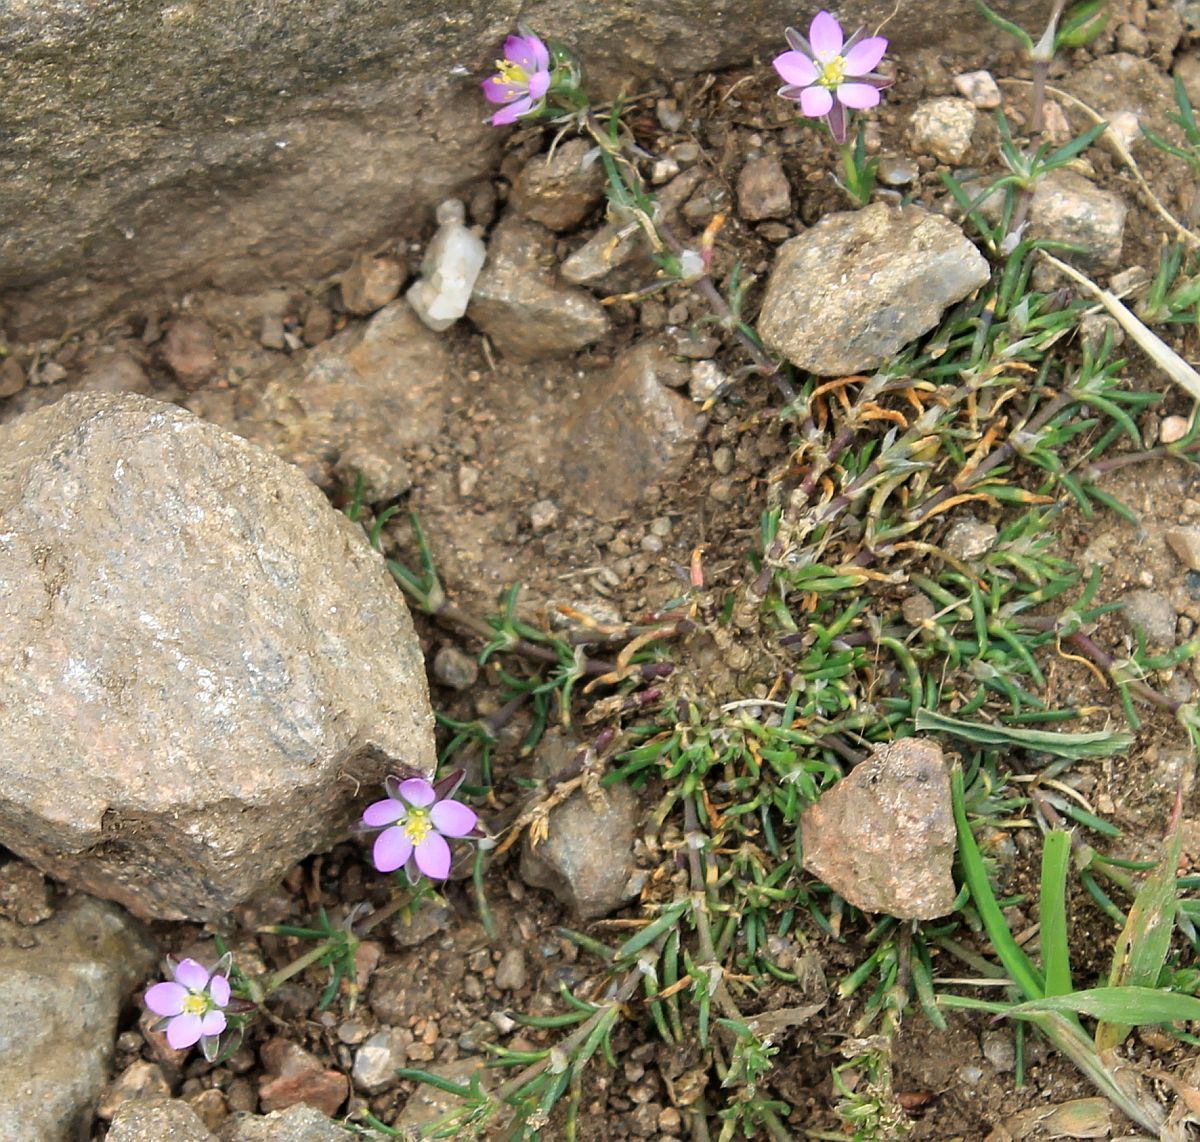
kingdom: Plantae
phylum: Tracheophyta
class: Magnoliopsida
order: Caryophyllales
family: Caryophyllaceae
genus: Spergularia
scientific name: Spergularia rubra
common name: Red sand-spurrey
